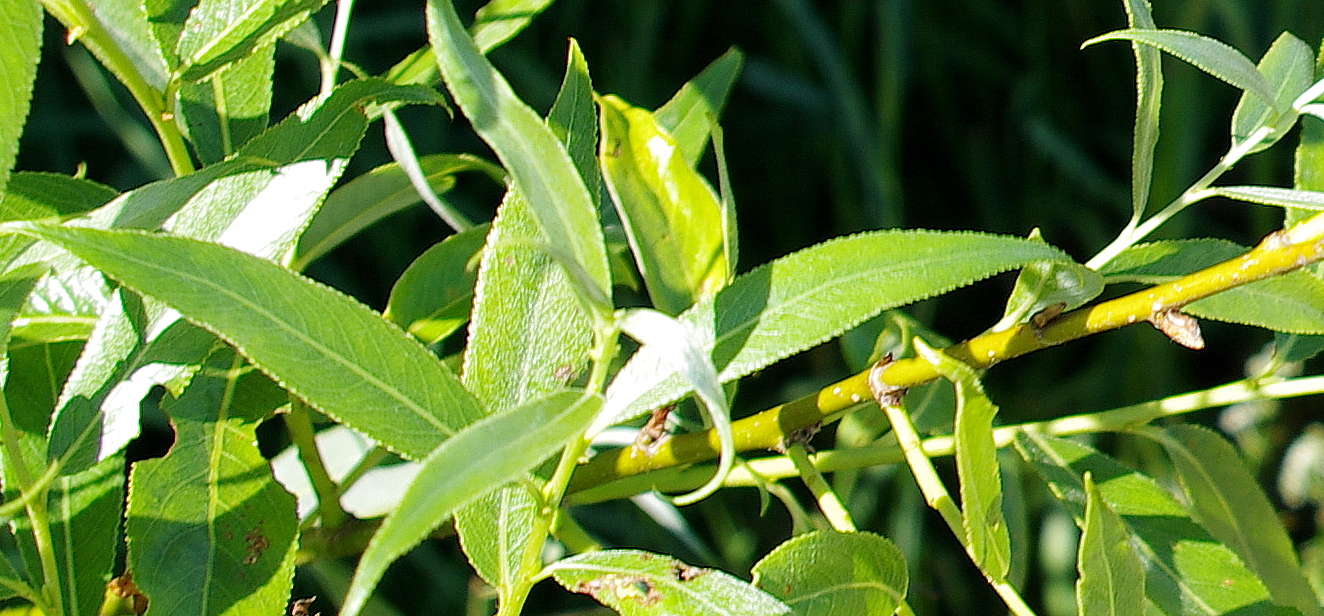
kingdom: Plantae
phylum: Tracheophyta
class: Magnoliopsida
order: Malpighiales
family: Salicaceae
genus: Salix
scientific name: Salix alba
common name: White willow
